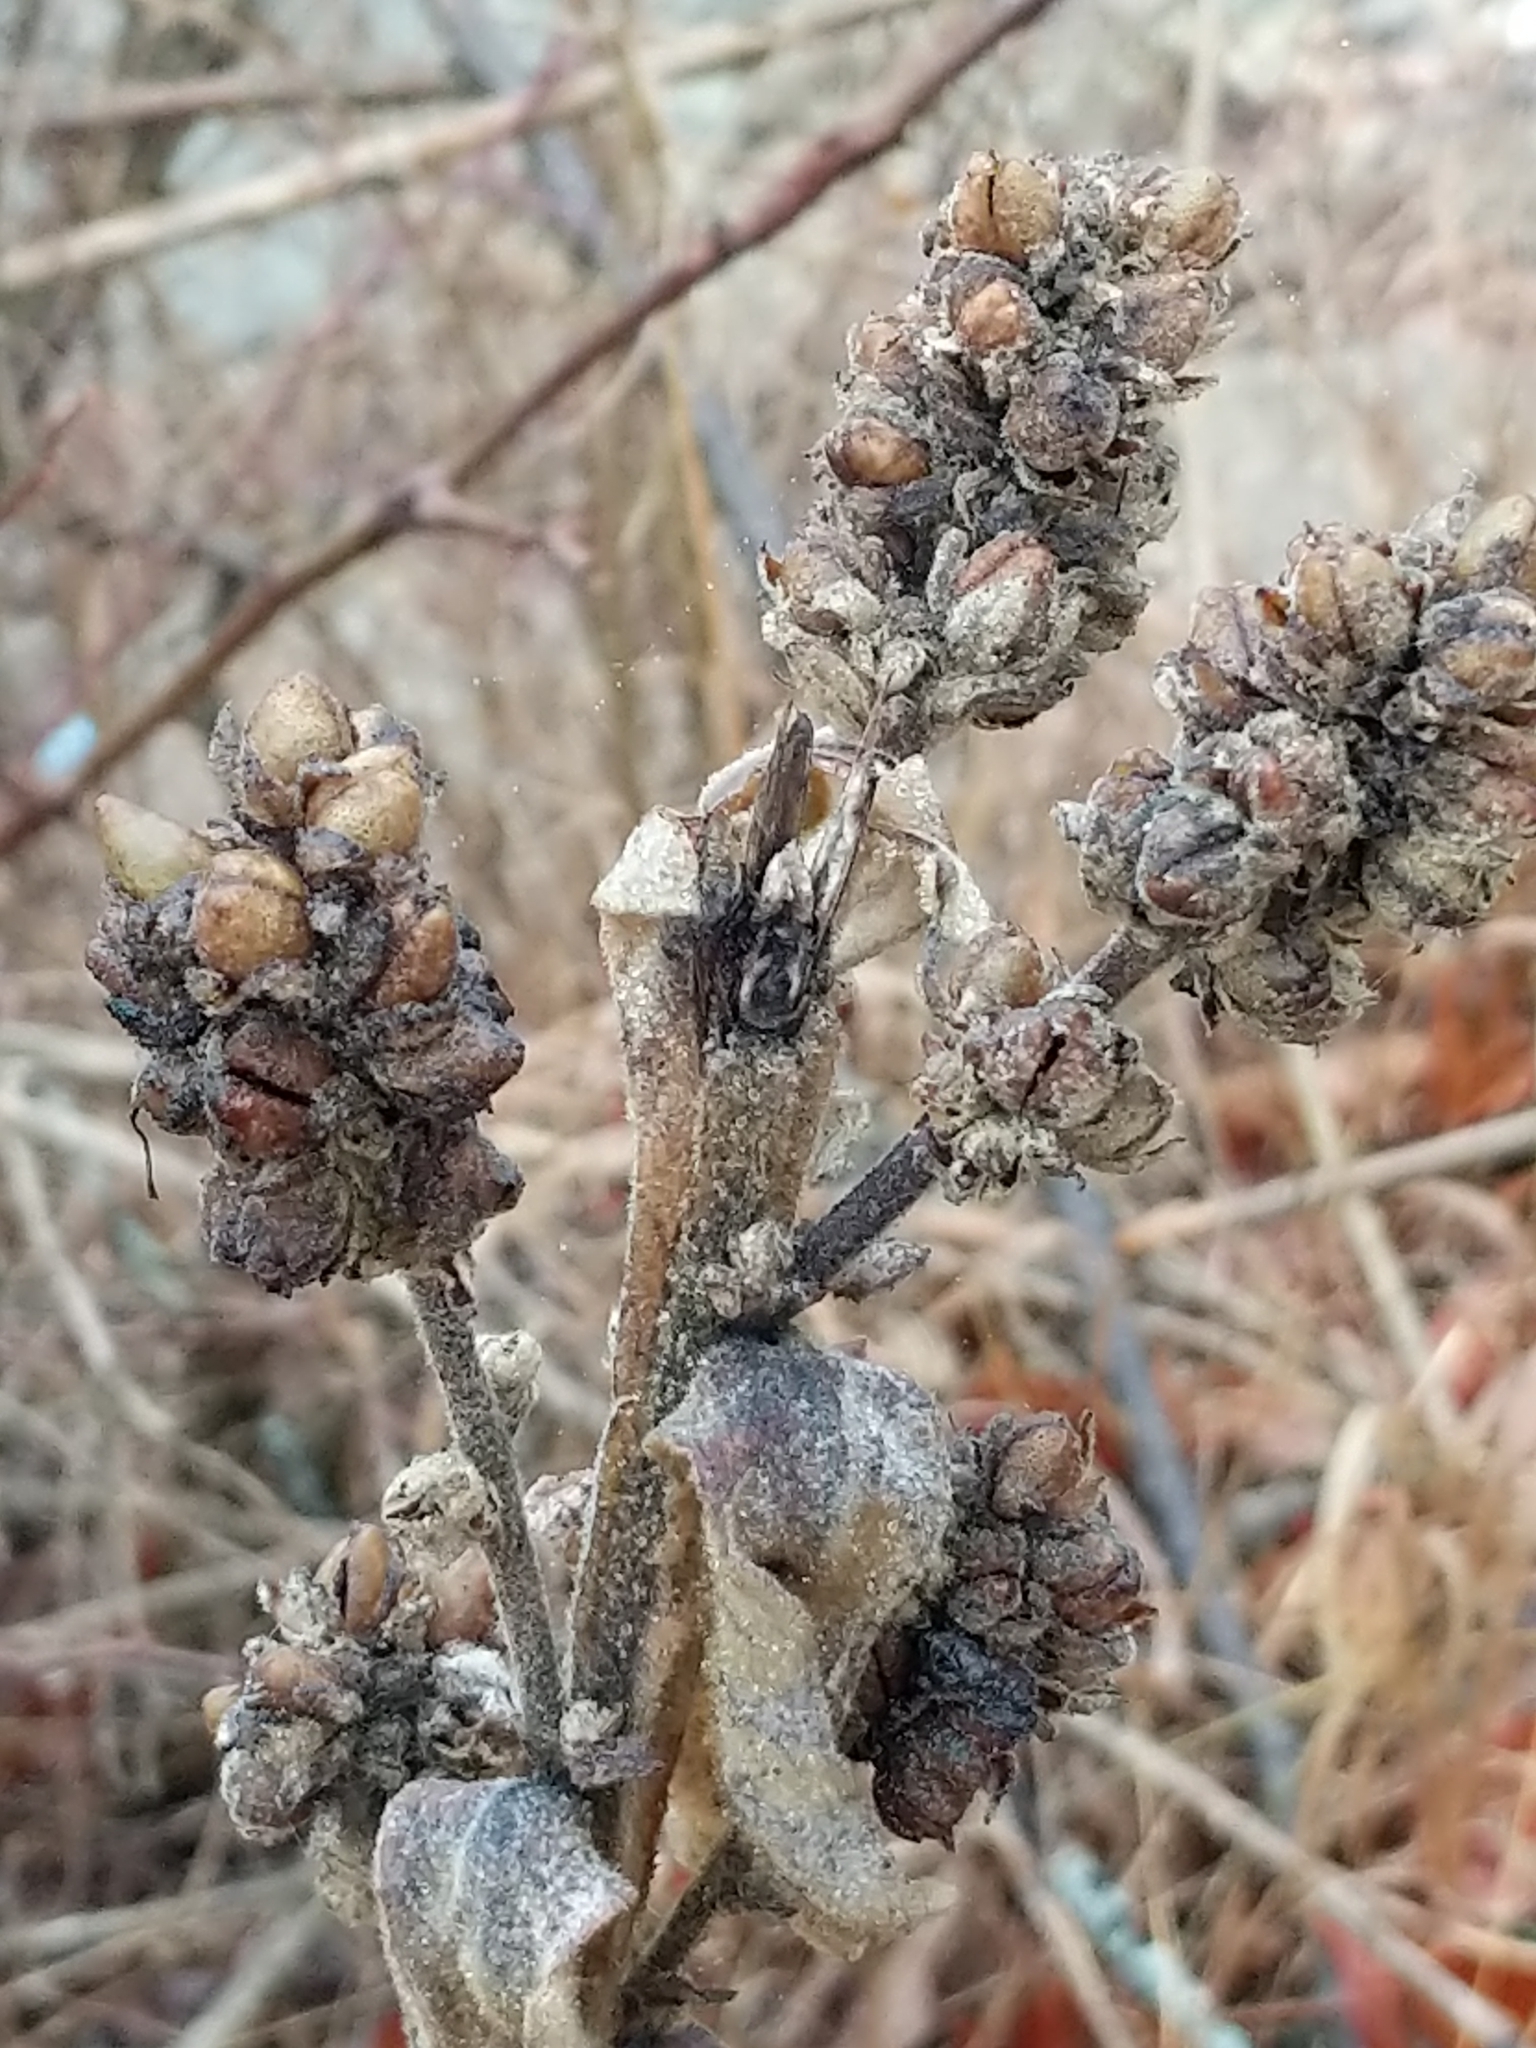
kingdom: Plantae
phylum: Tracheophyta
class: Magnoliopsida
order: Lamiales
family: Scrophulariaceae
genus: Verbascum
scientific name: Verbascum thapsus
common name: Common mullein
